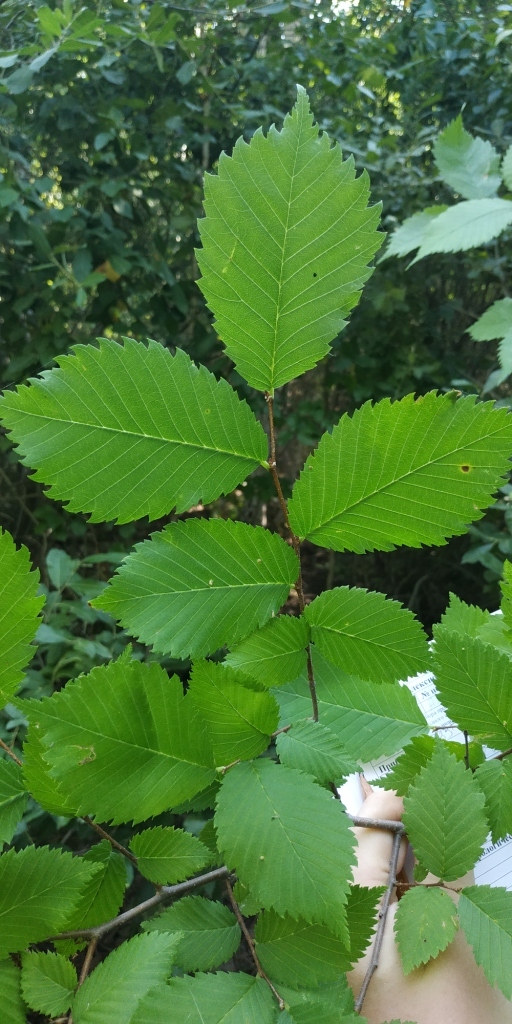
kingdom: Plantae
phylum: Tracheophyta
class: Magnoliopsida
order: Rosales
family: Ulmaceae
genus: Ulmus
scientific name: Ulmus laevis
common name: European white-elm
